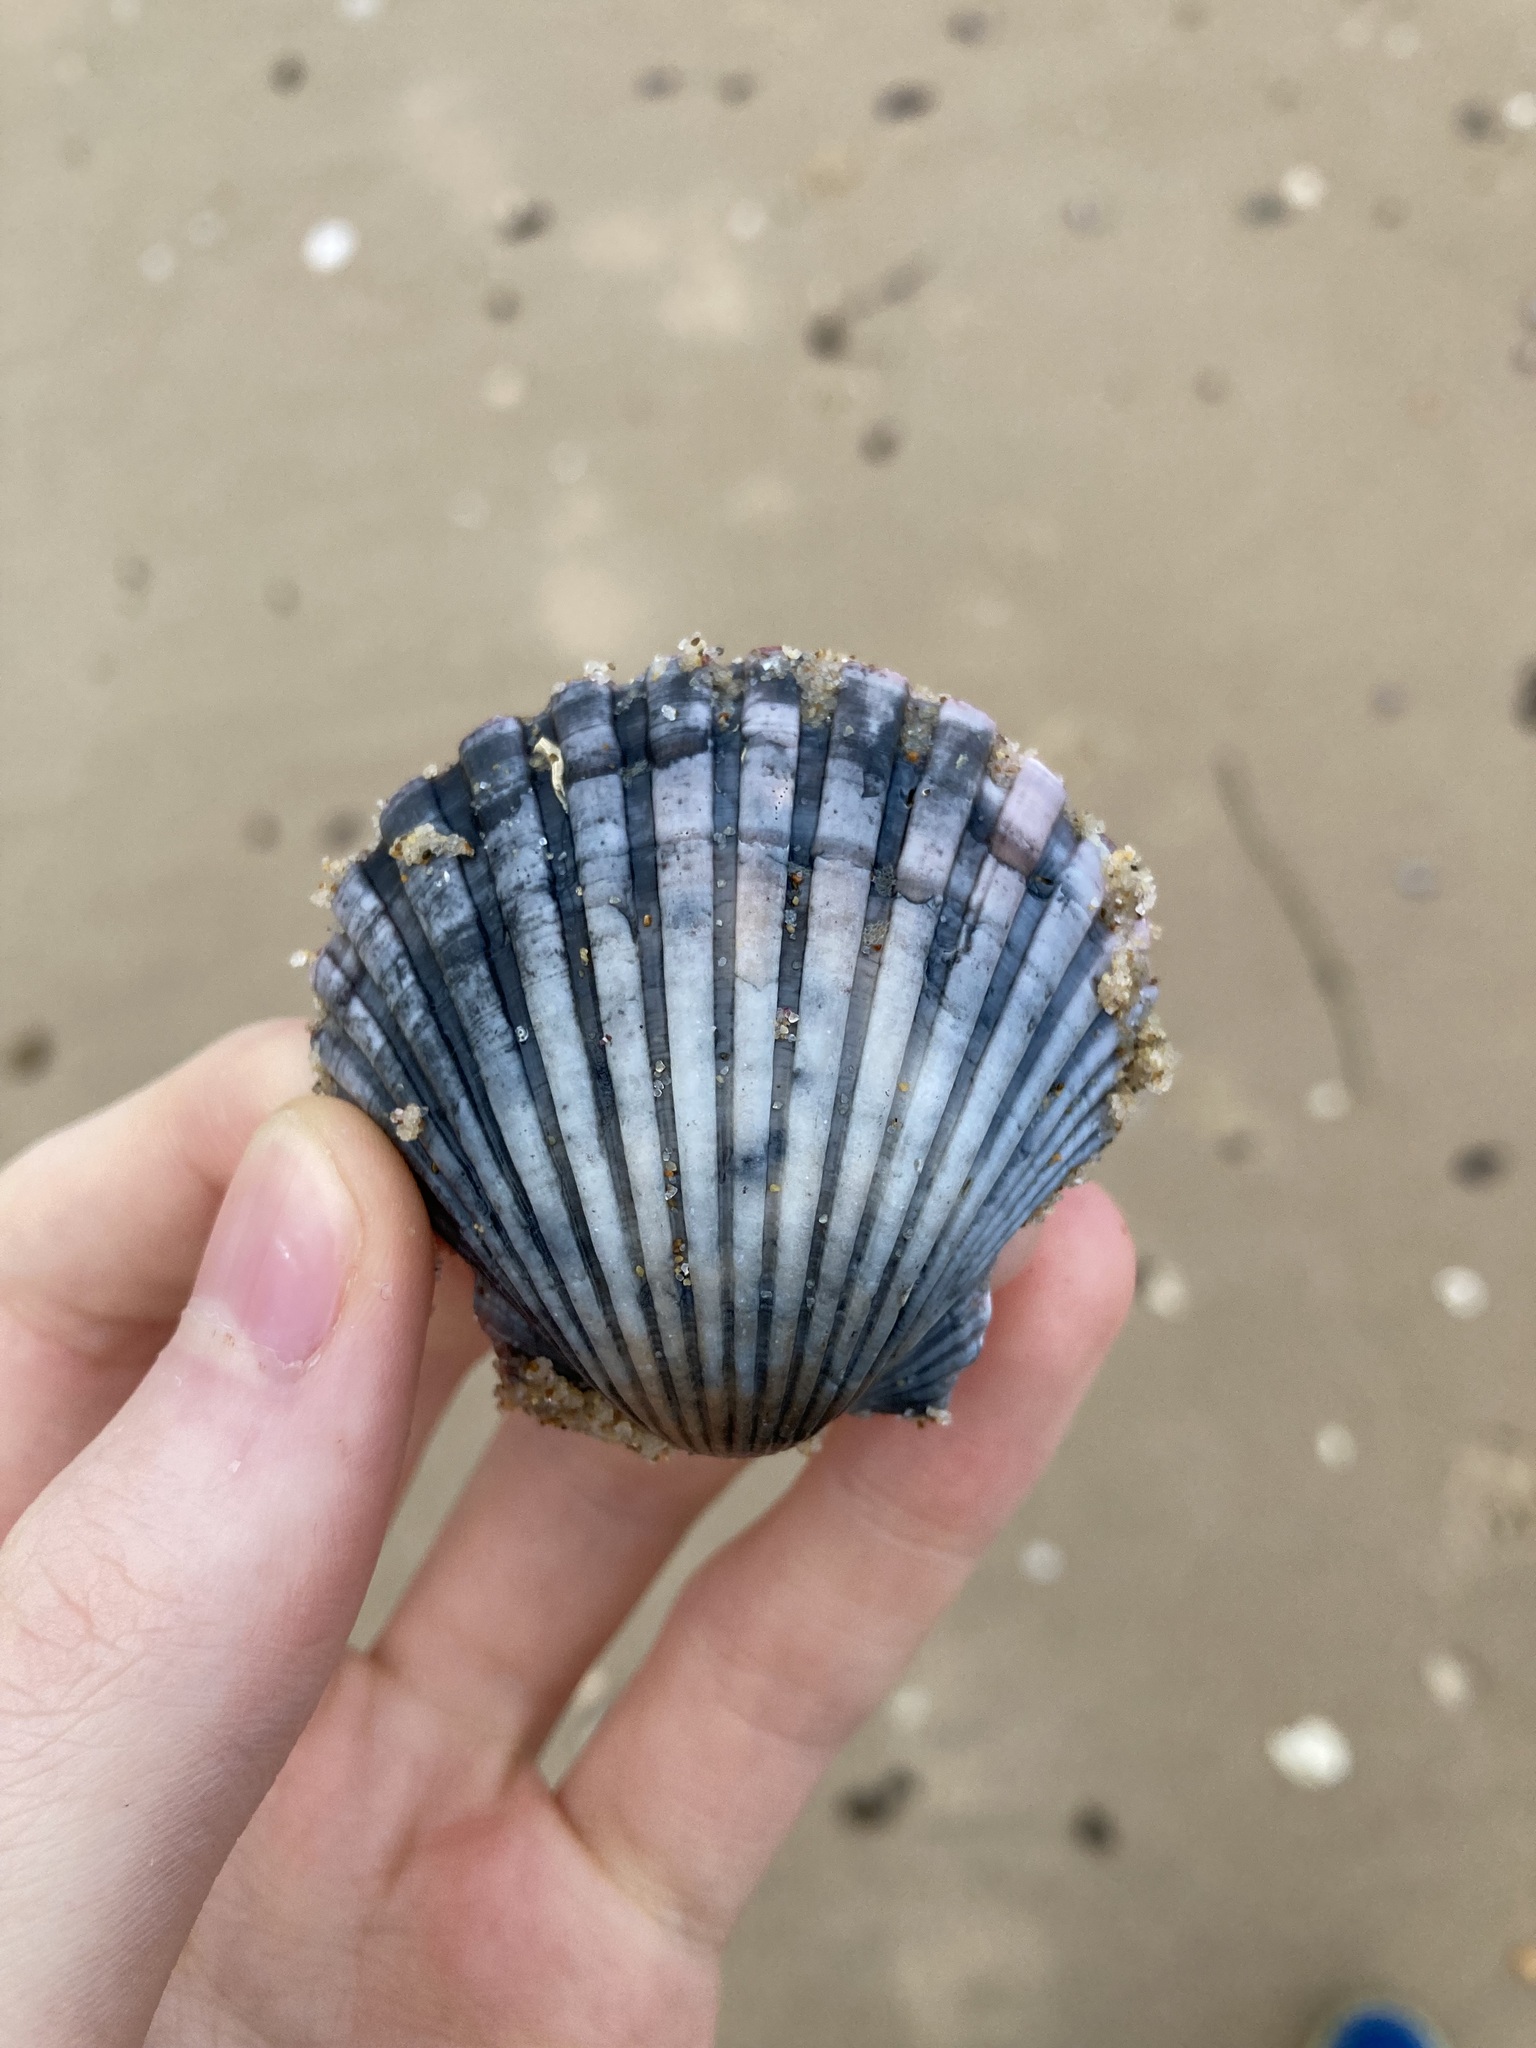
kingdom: Animalia
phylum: Mollusca
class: Bivalvia
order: Pectinida
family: Pectinidae
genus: Pecten
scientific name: Pecten fumatus
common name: Australian scallop
